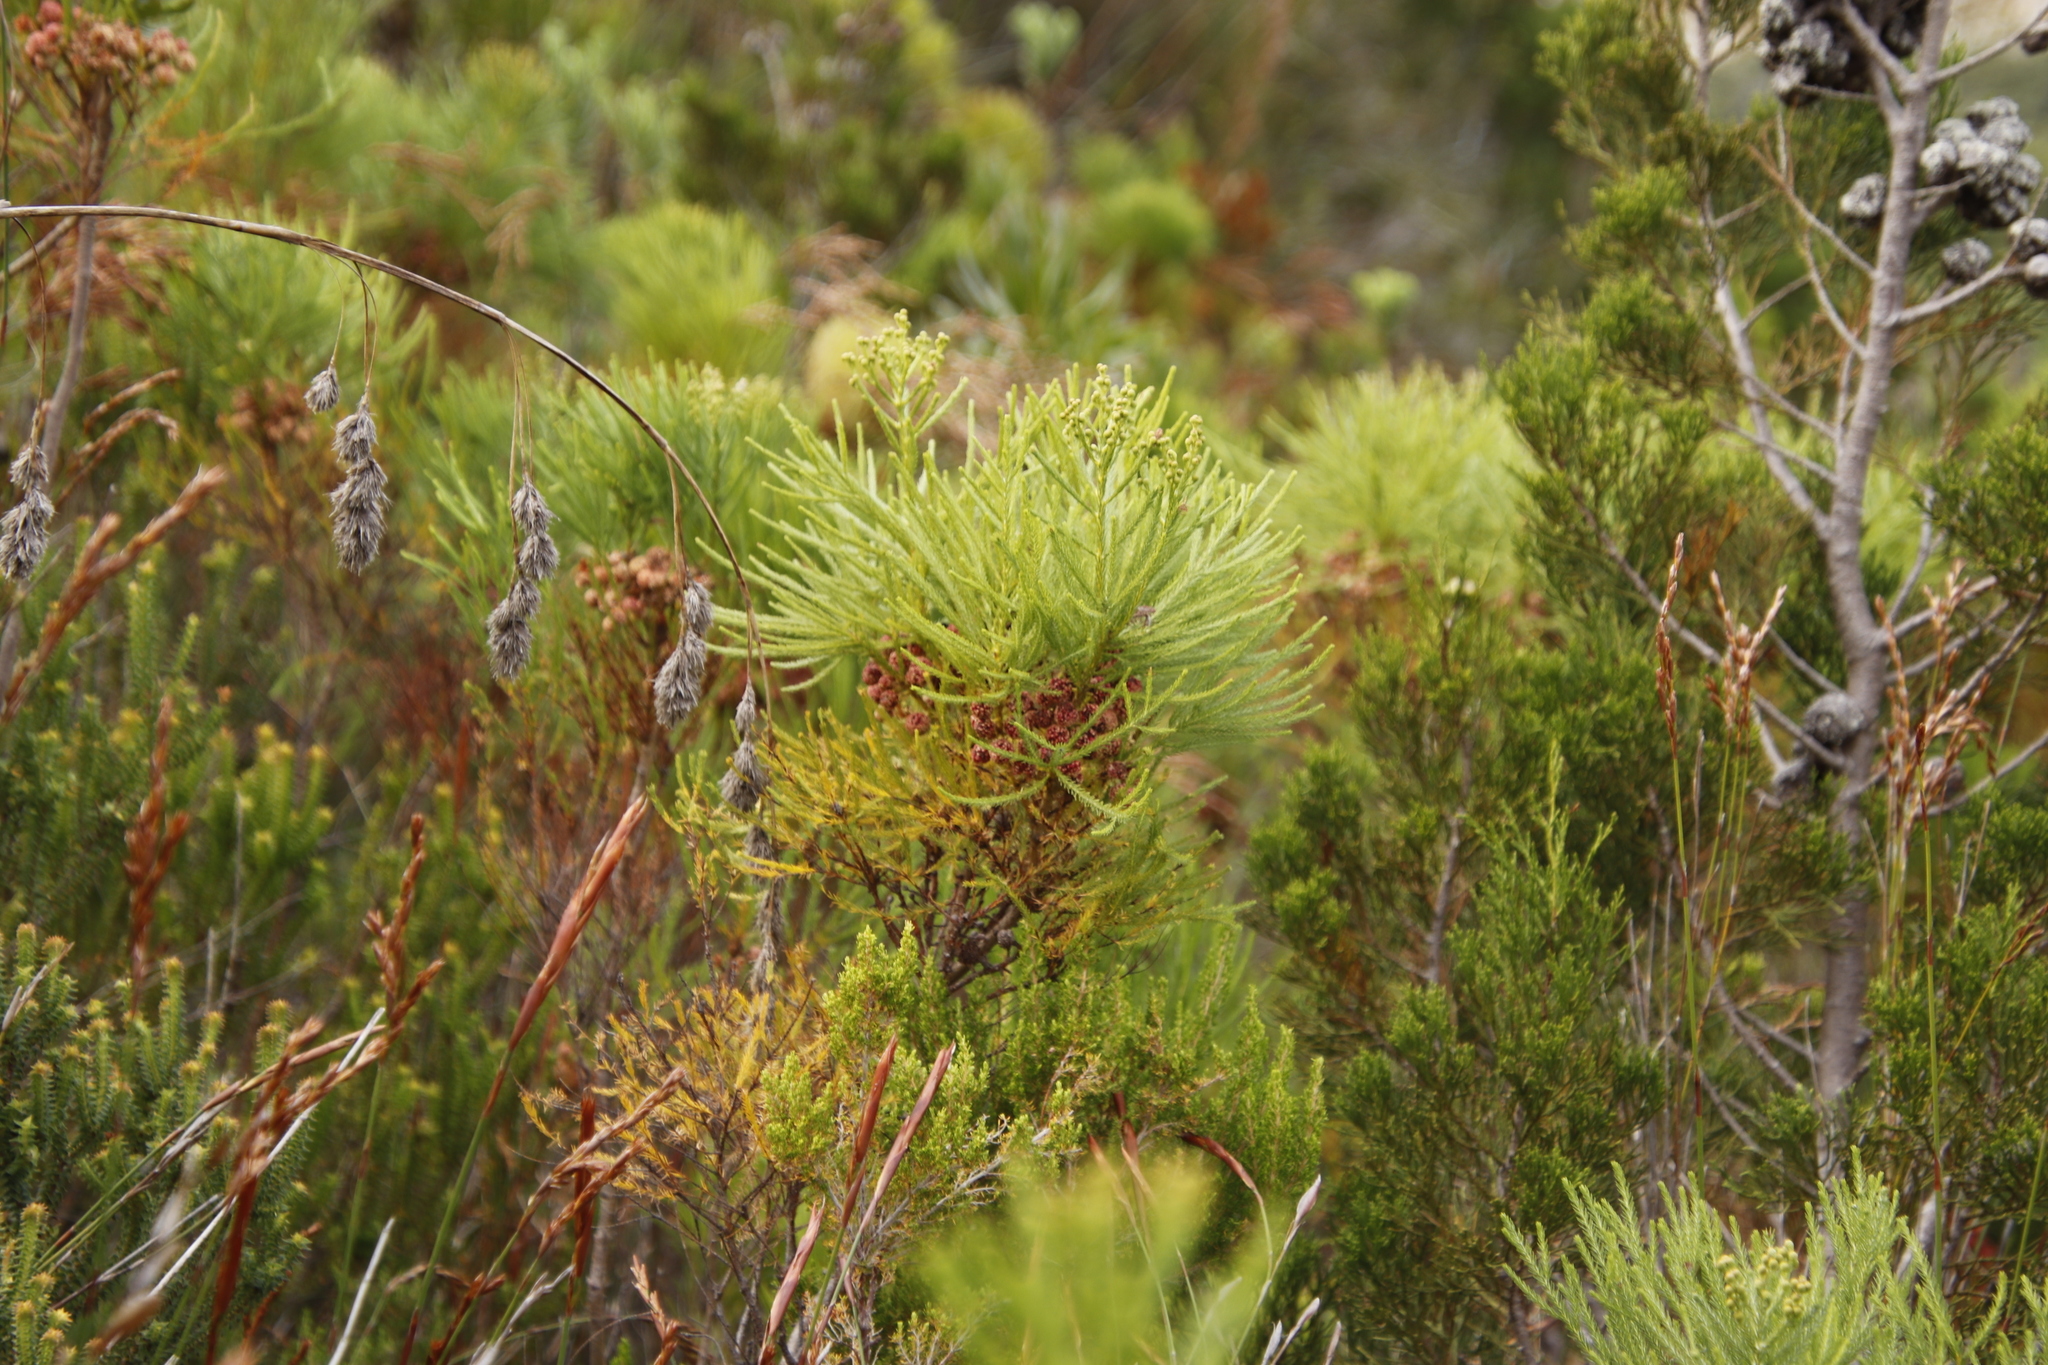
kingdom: Plantae
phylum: Tracheophyta
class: Magnoliopsida
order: Bruniales
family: Bruniaceae
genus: Berzelia
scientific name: Berzelia lanuginosa
